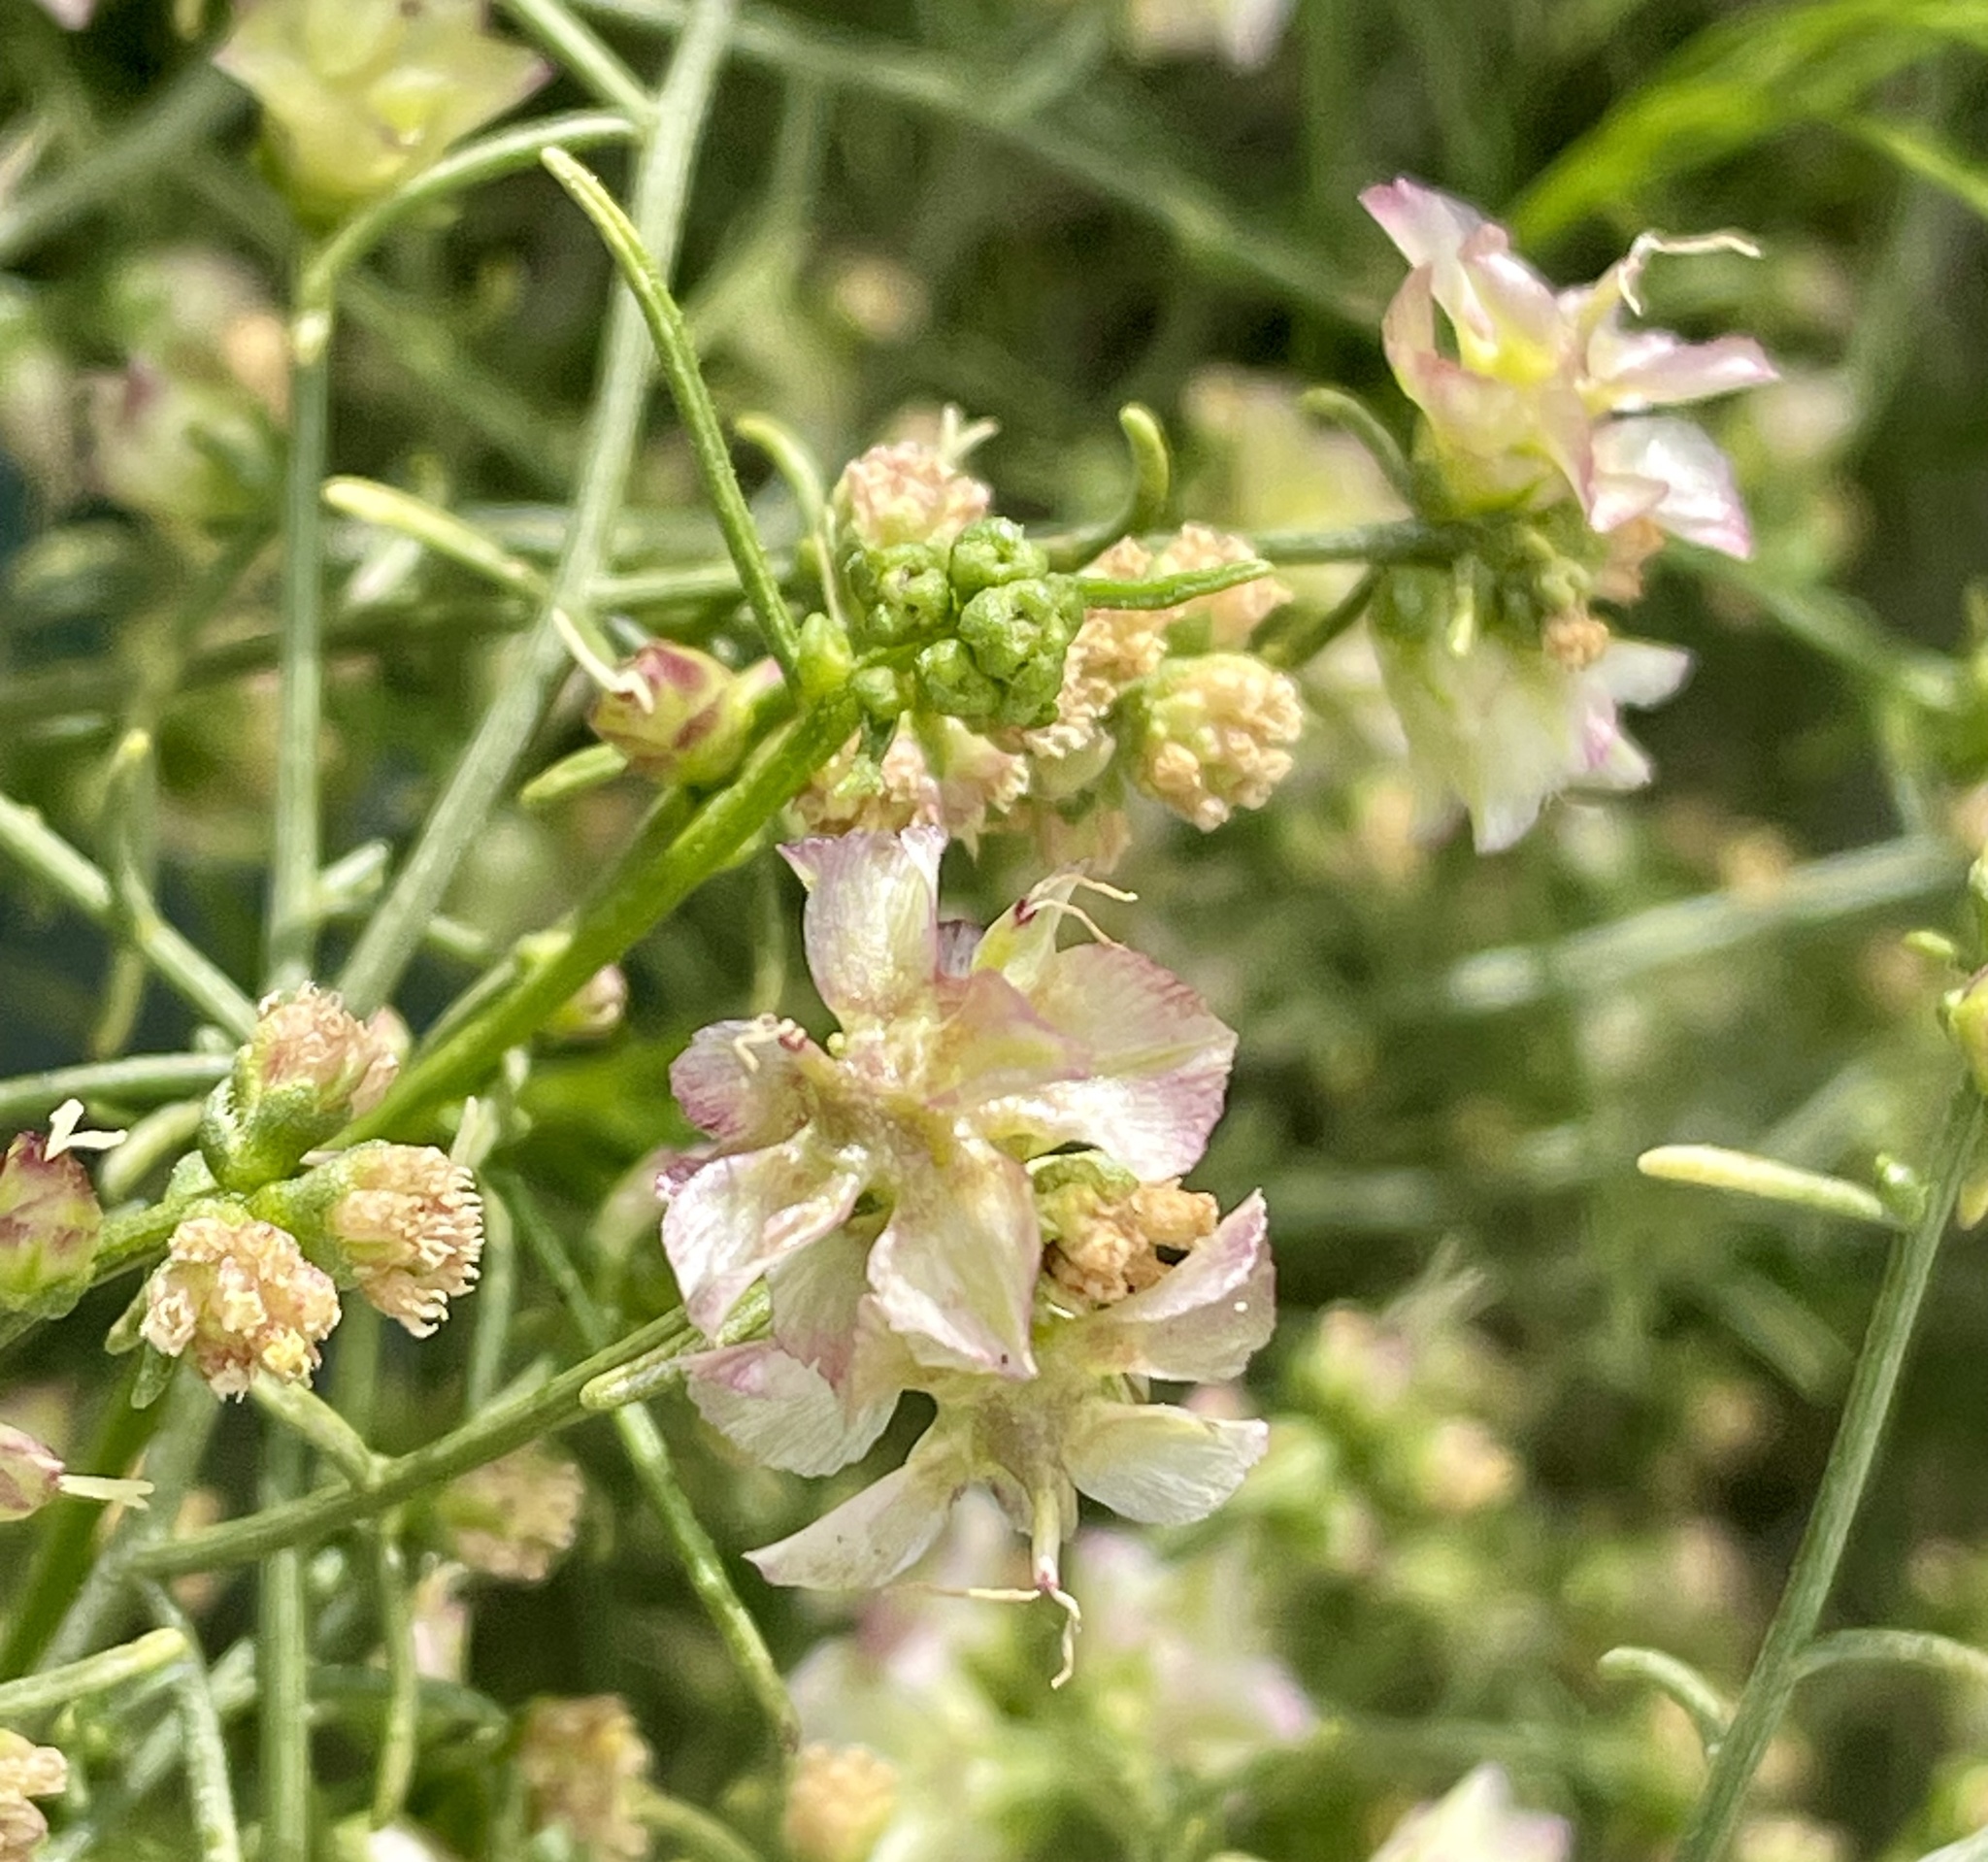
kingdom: Plantae
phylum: Tracheophyta
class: Magnoliopsida
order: Asterales
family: Asteraceae
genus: Ambrosia
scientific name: Ambrosia salsola
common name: Burrobrush
